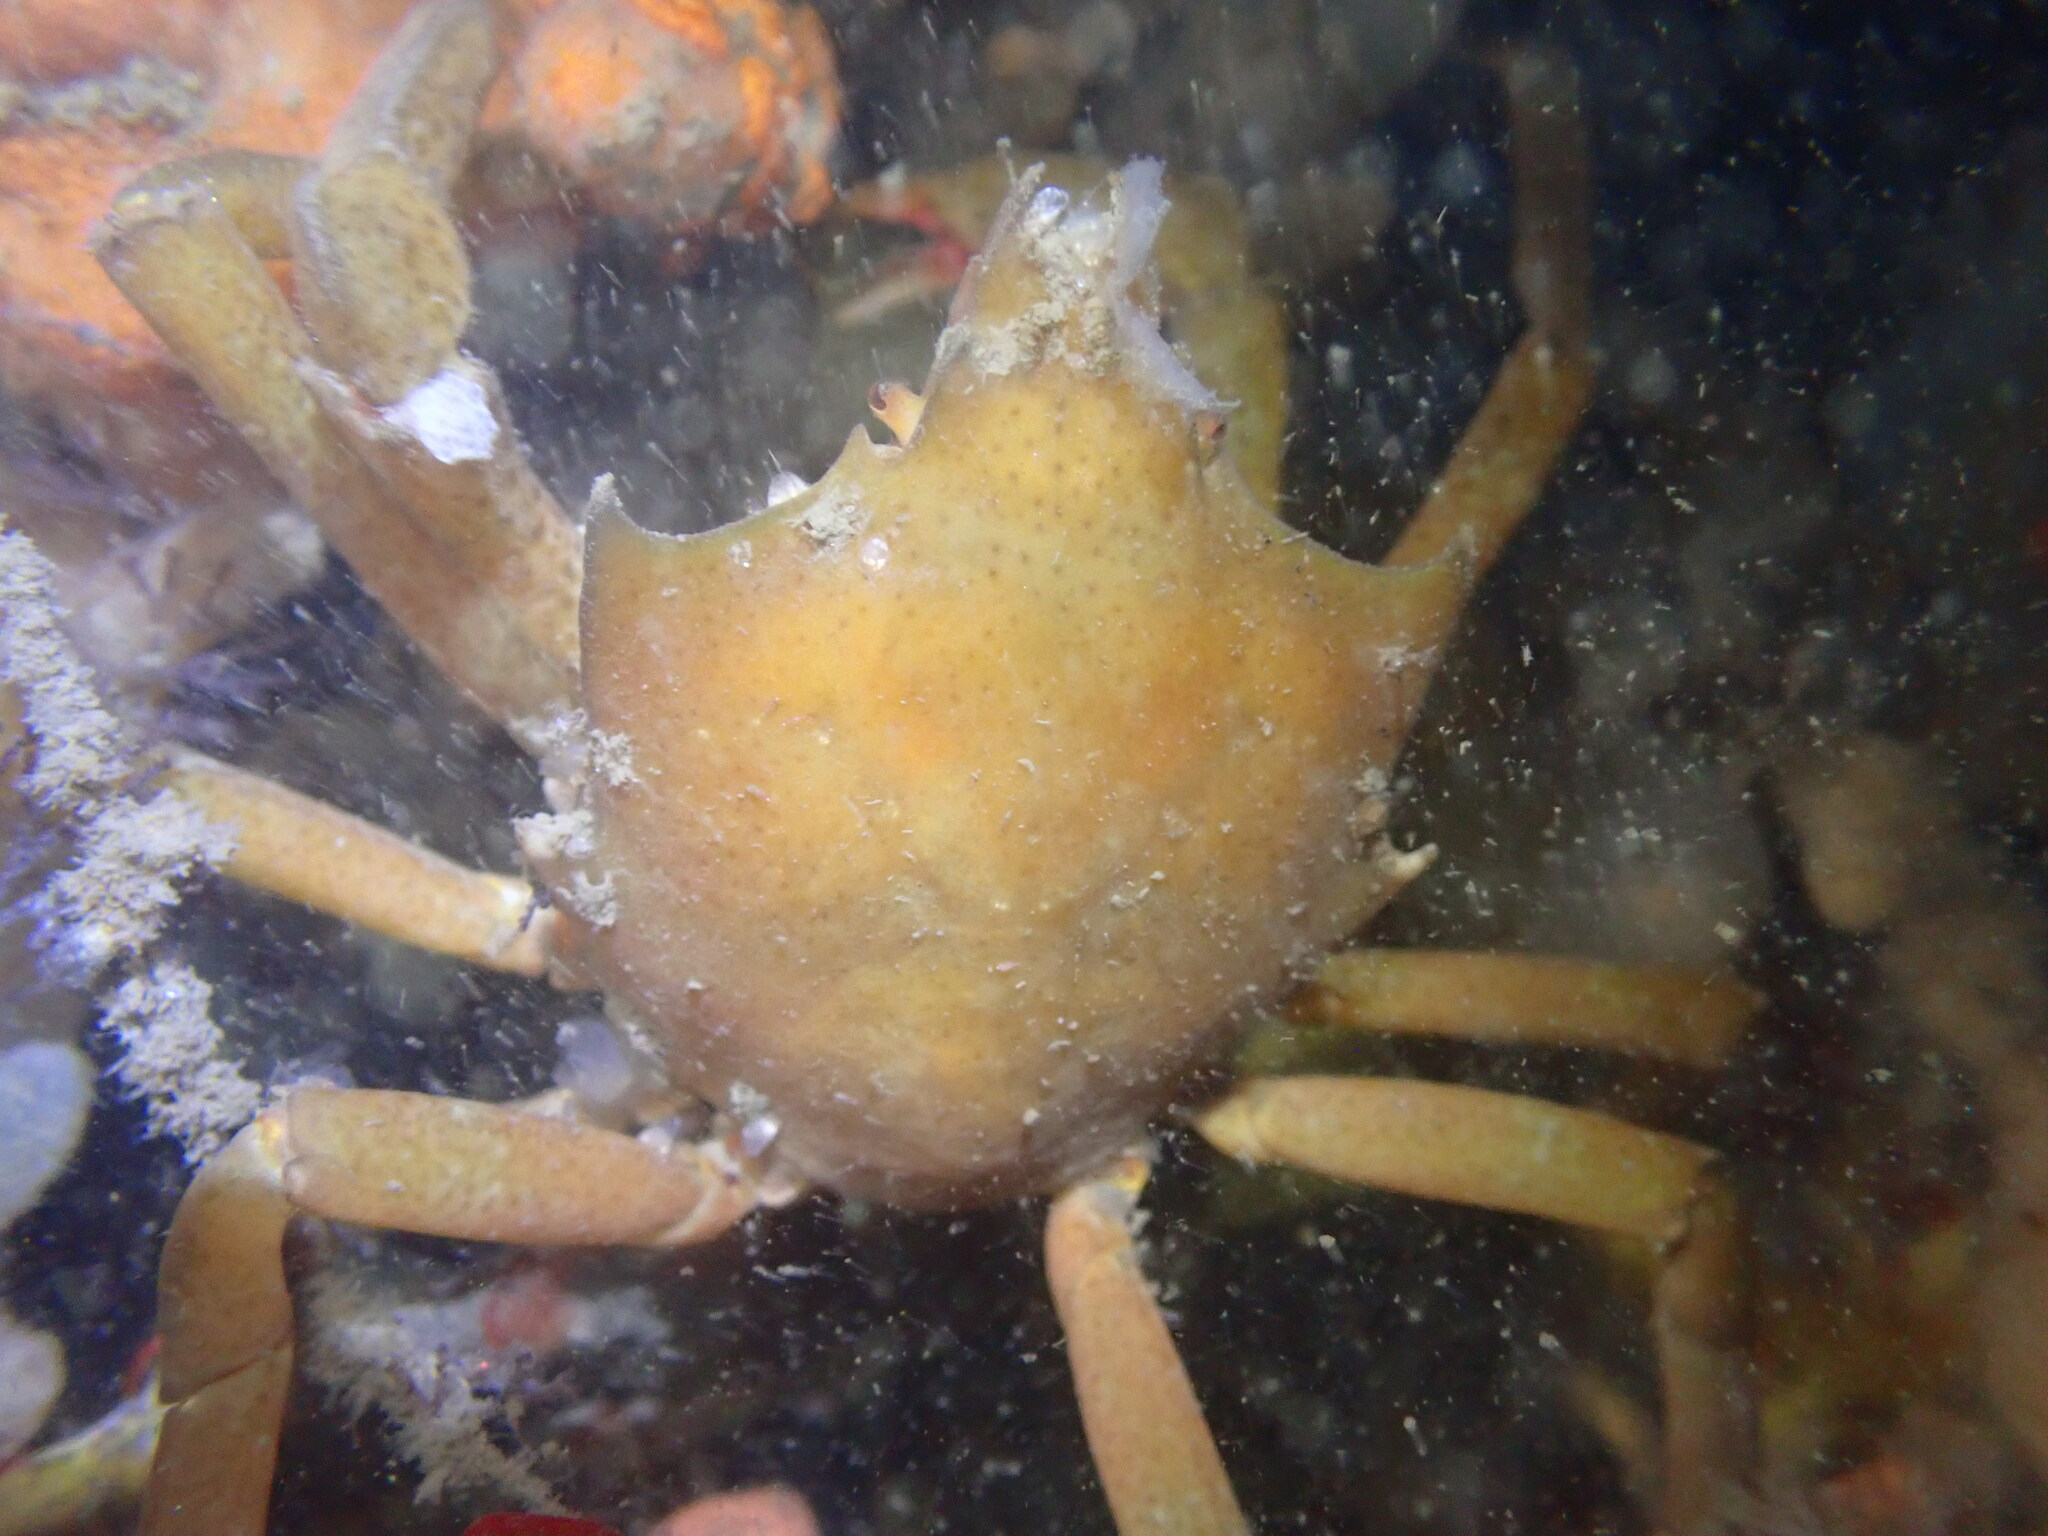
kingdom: Animalia
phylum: Arthropoda
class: Malacostraca
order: Decapoda
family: Epialtidae
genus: Pugettia
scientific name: Pugettia producta
